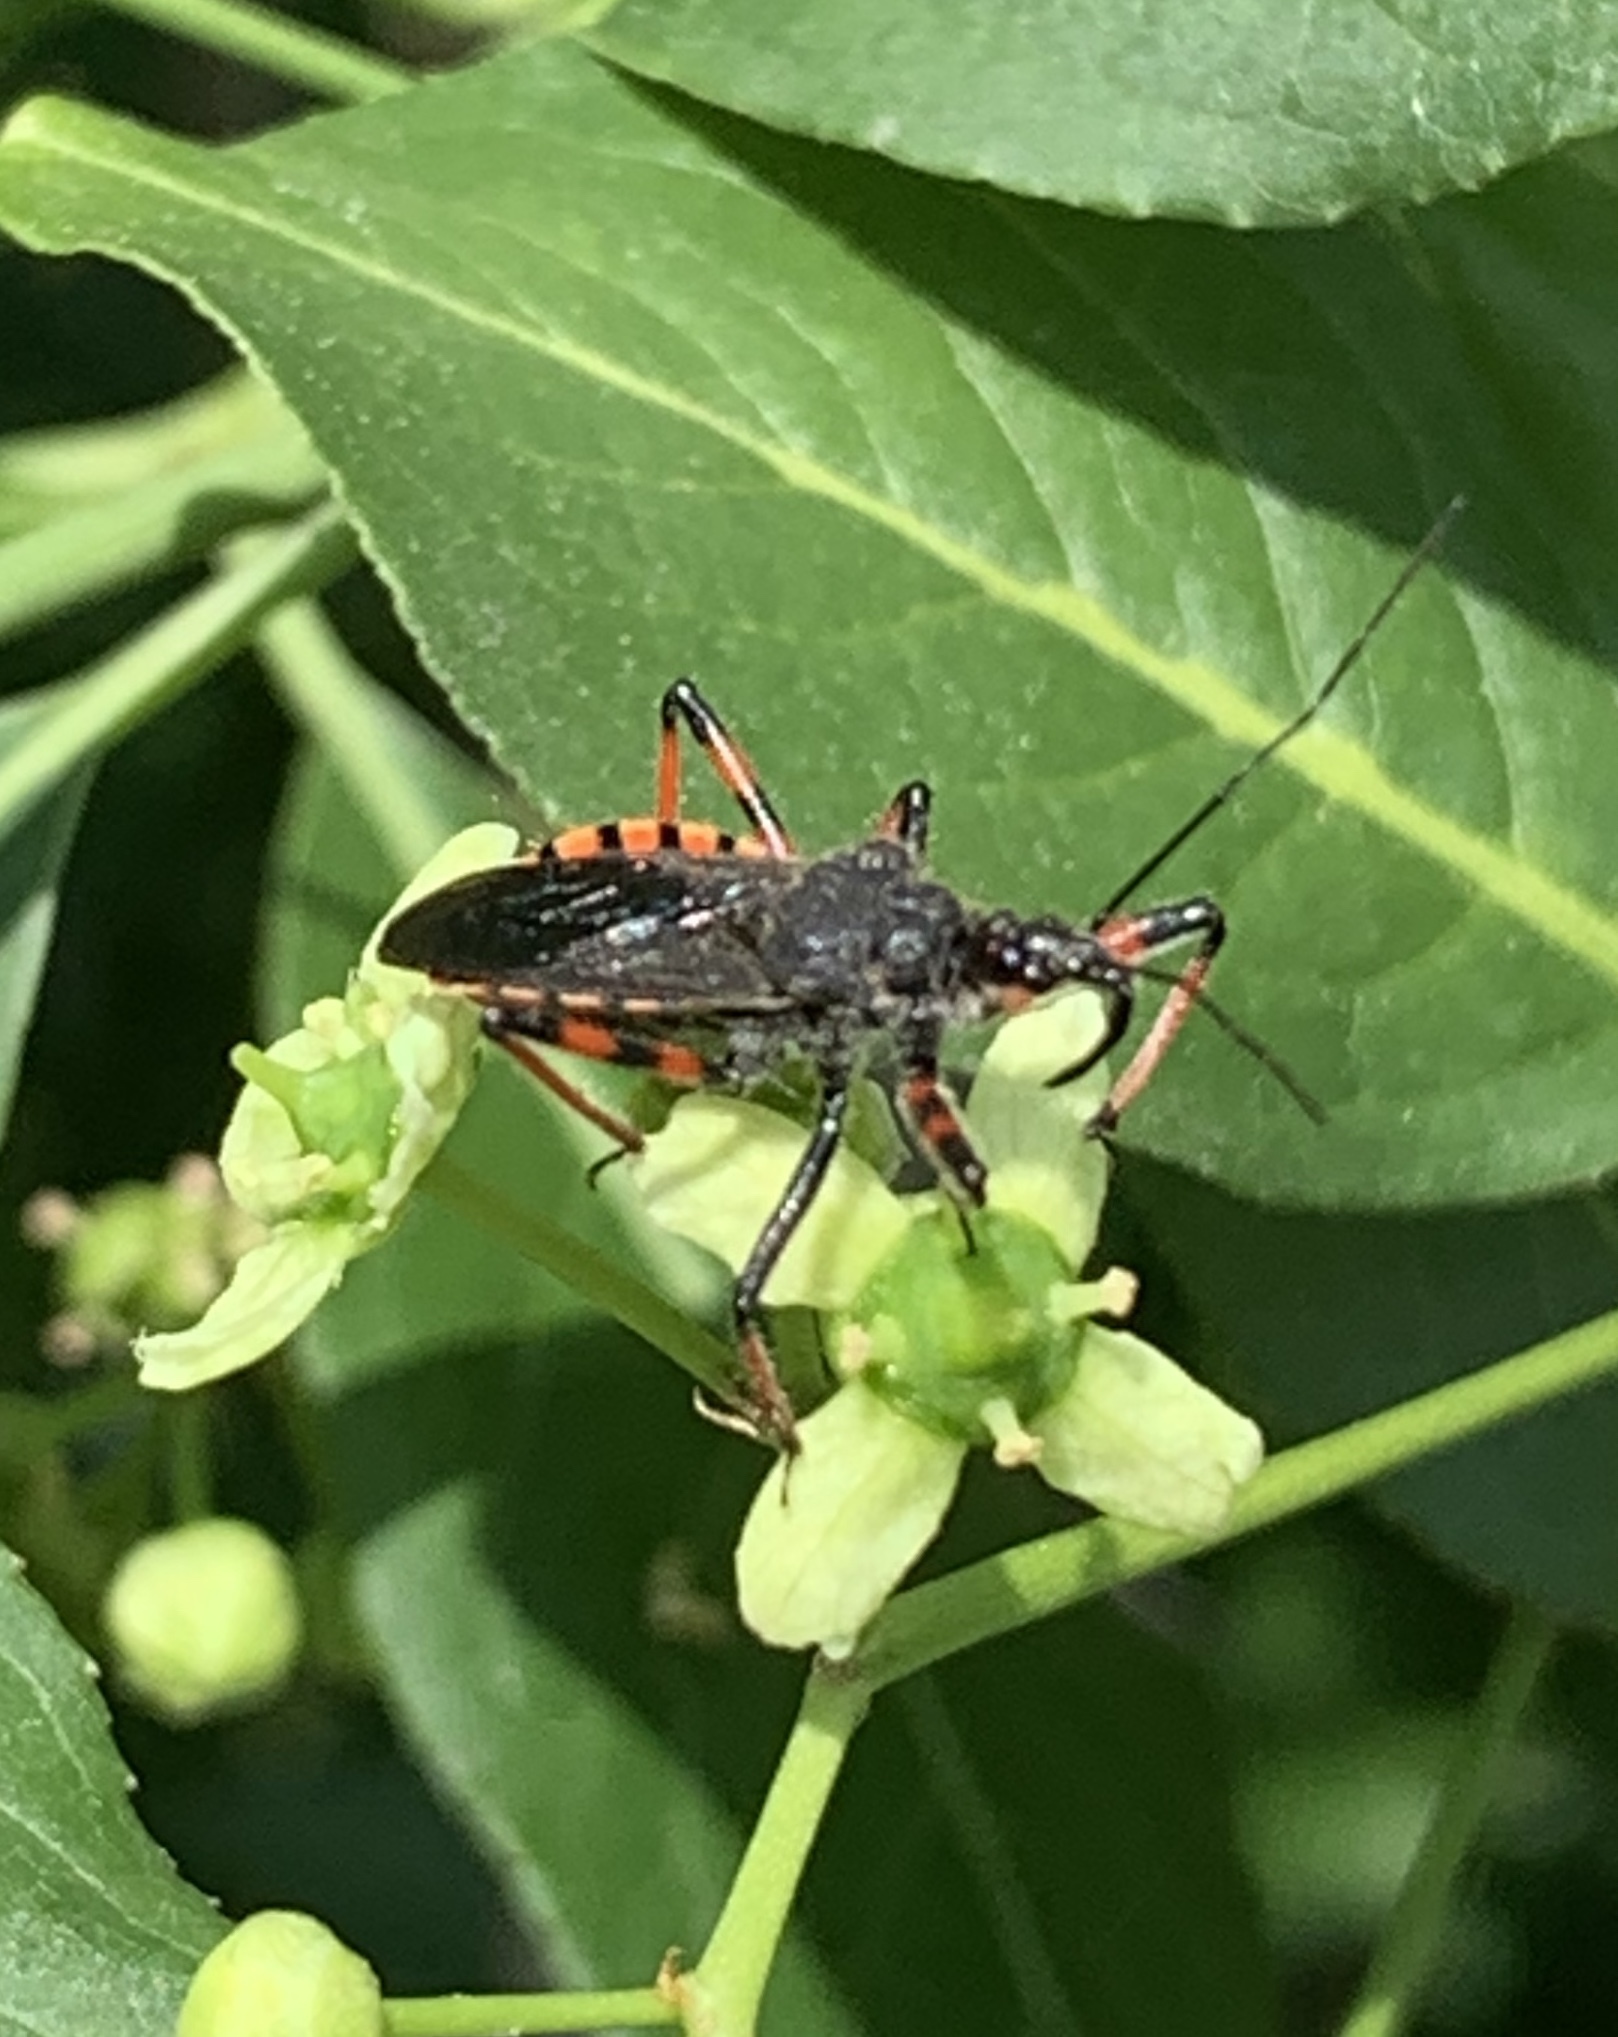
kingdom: Animalia
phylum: Arthropoda
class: Insecta
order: Hemiptera
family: Reduviidae
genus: Rhynocoris
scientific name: Rhynocoris annulatus
